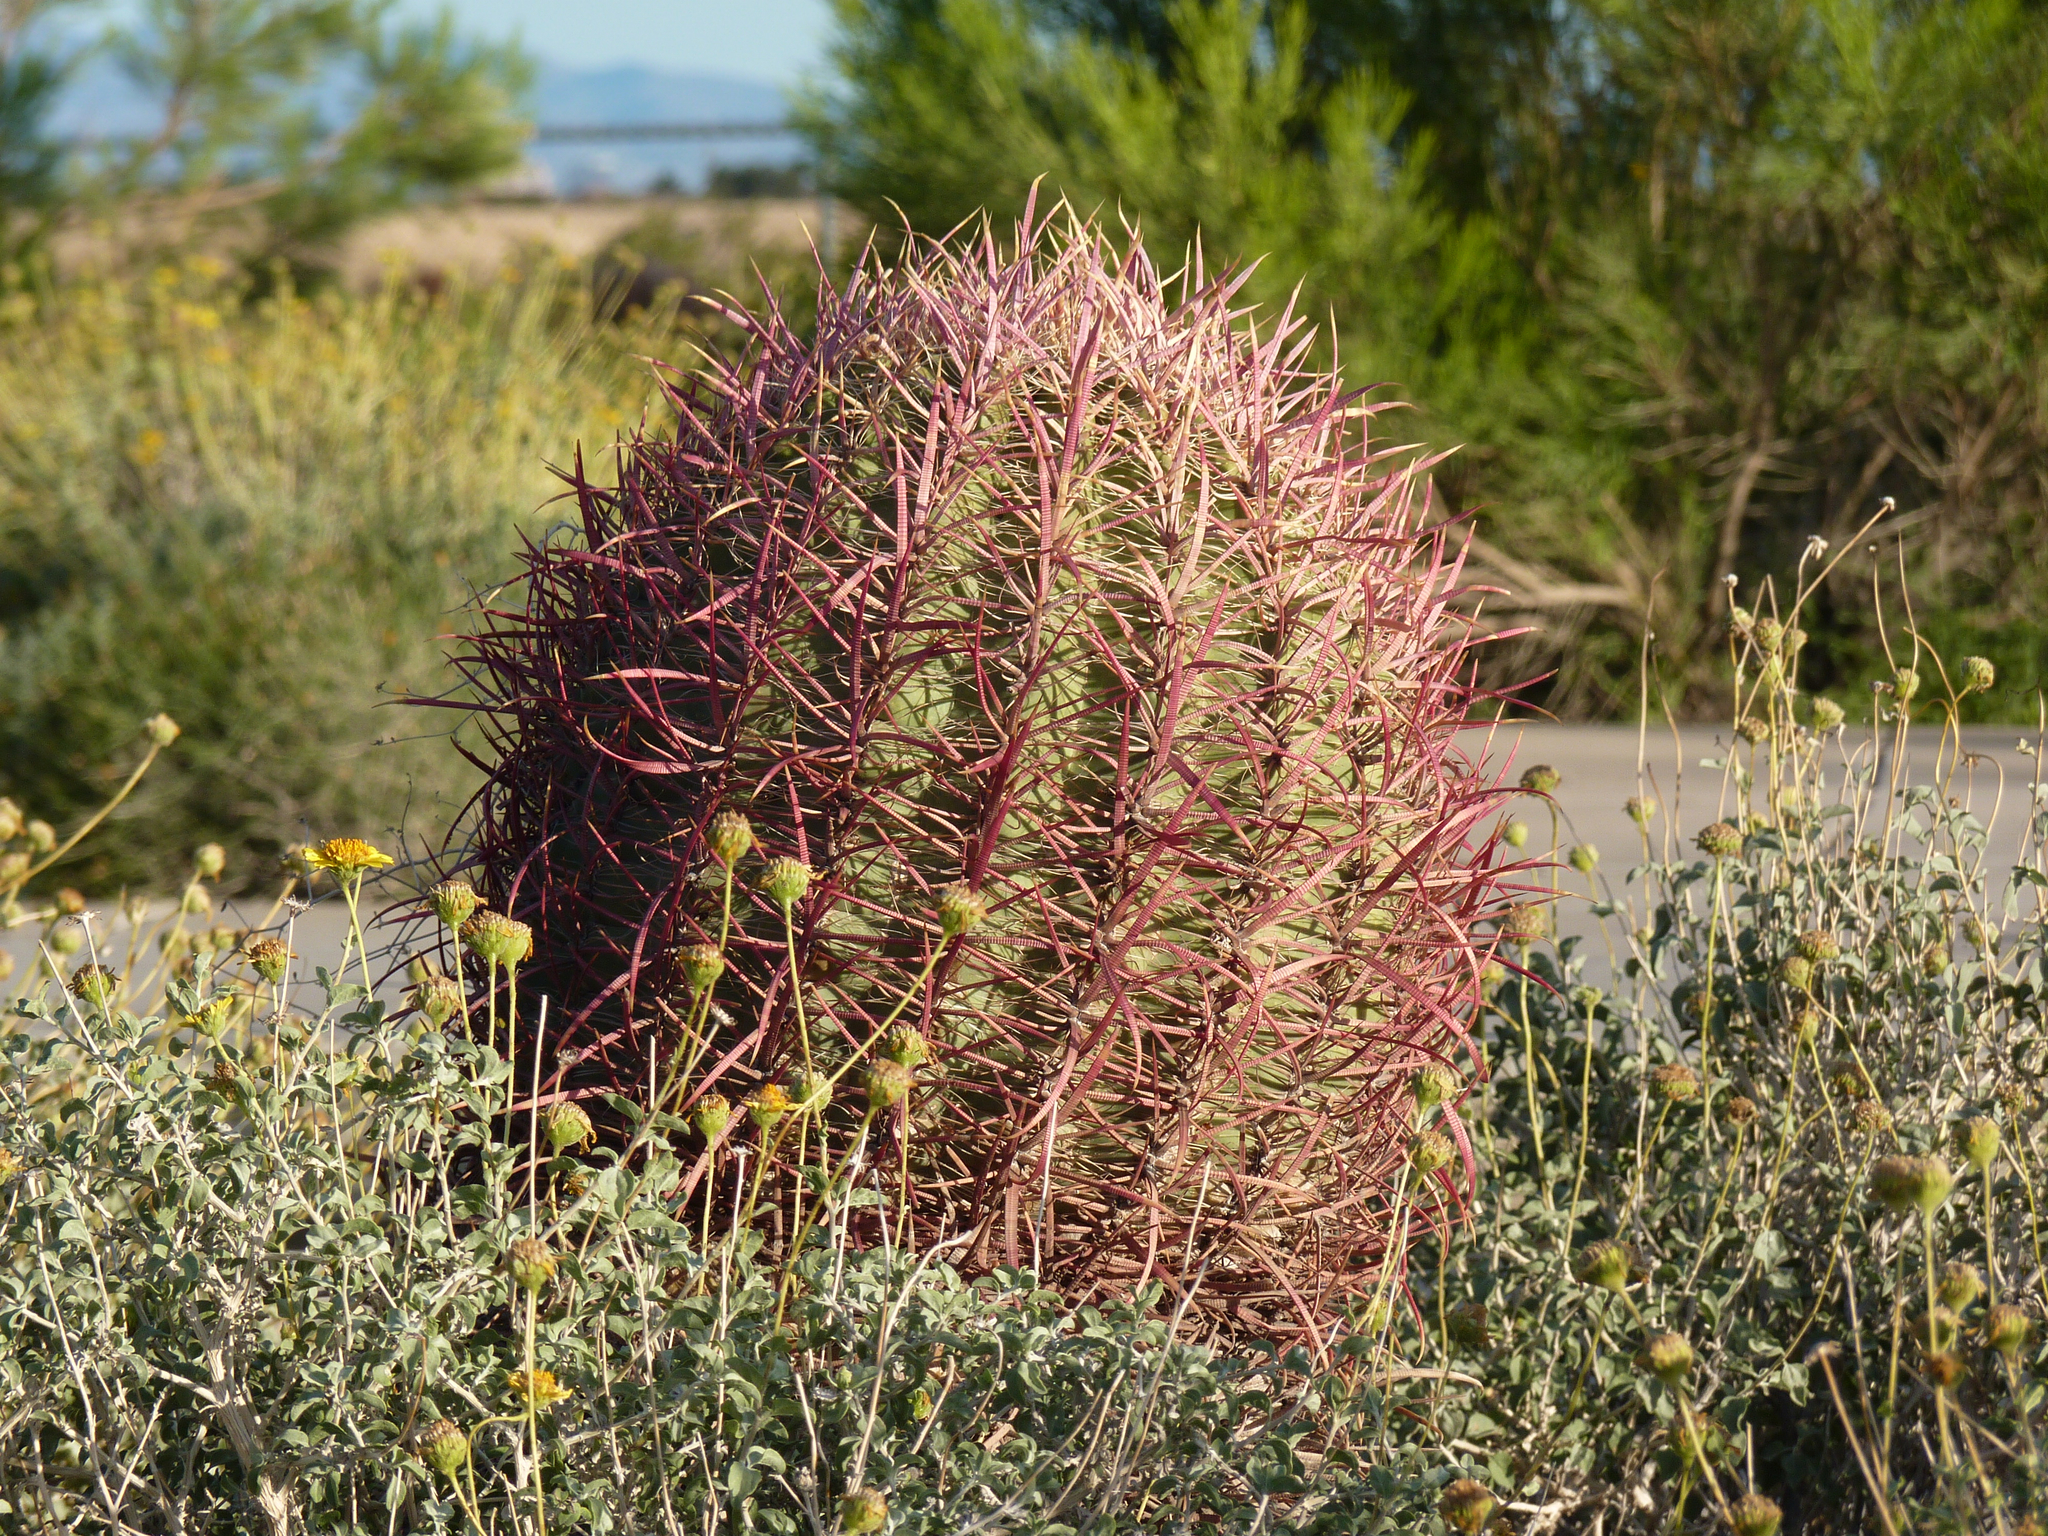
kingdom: Plantae
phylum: Tracheophyta
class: Magnoliopsida
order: Caryophyllales
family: Cactaceae
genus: Ferocactus
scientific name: Ferocactus cylindraceus
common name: California barrel cactus
